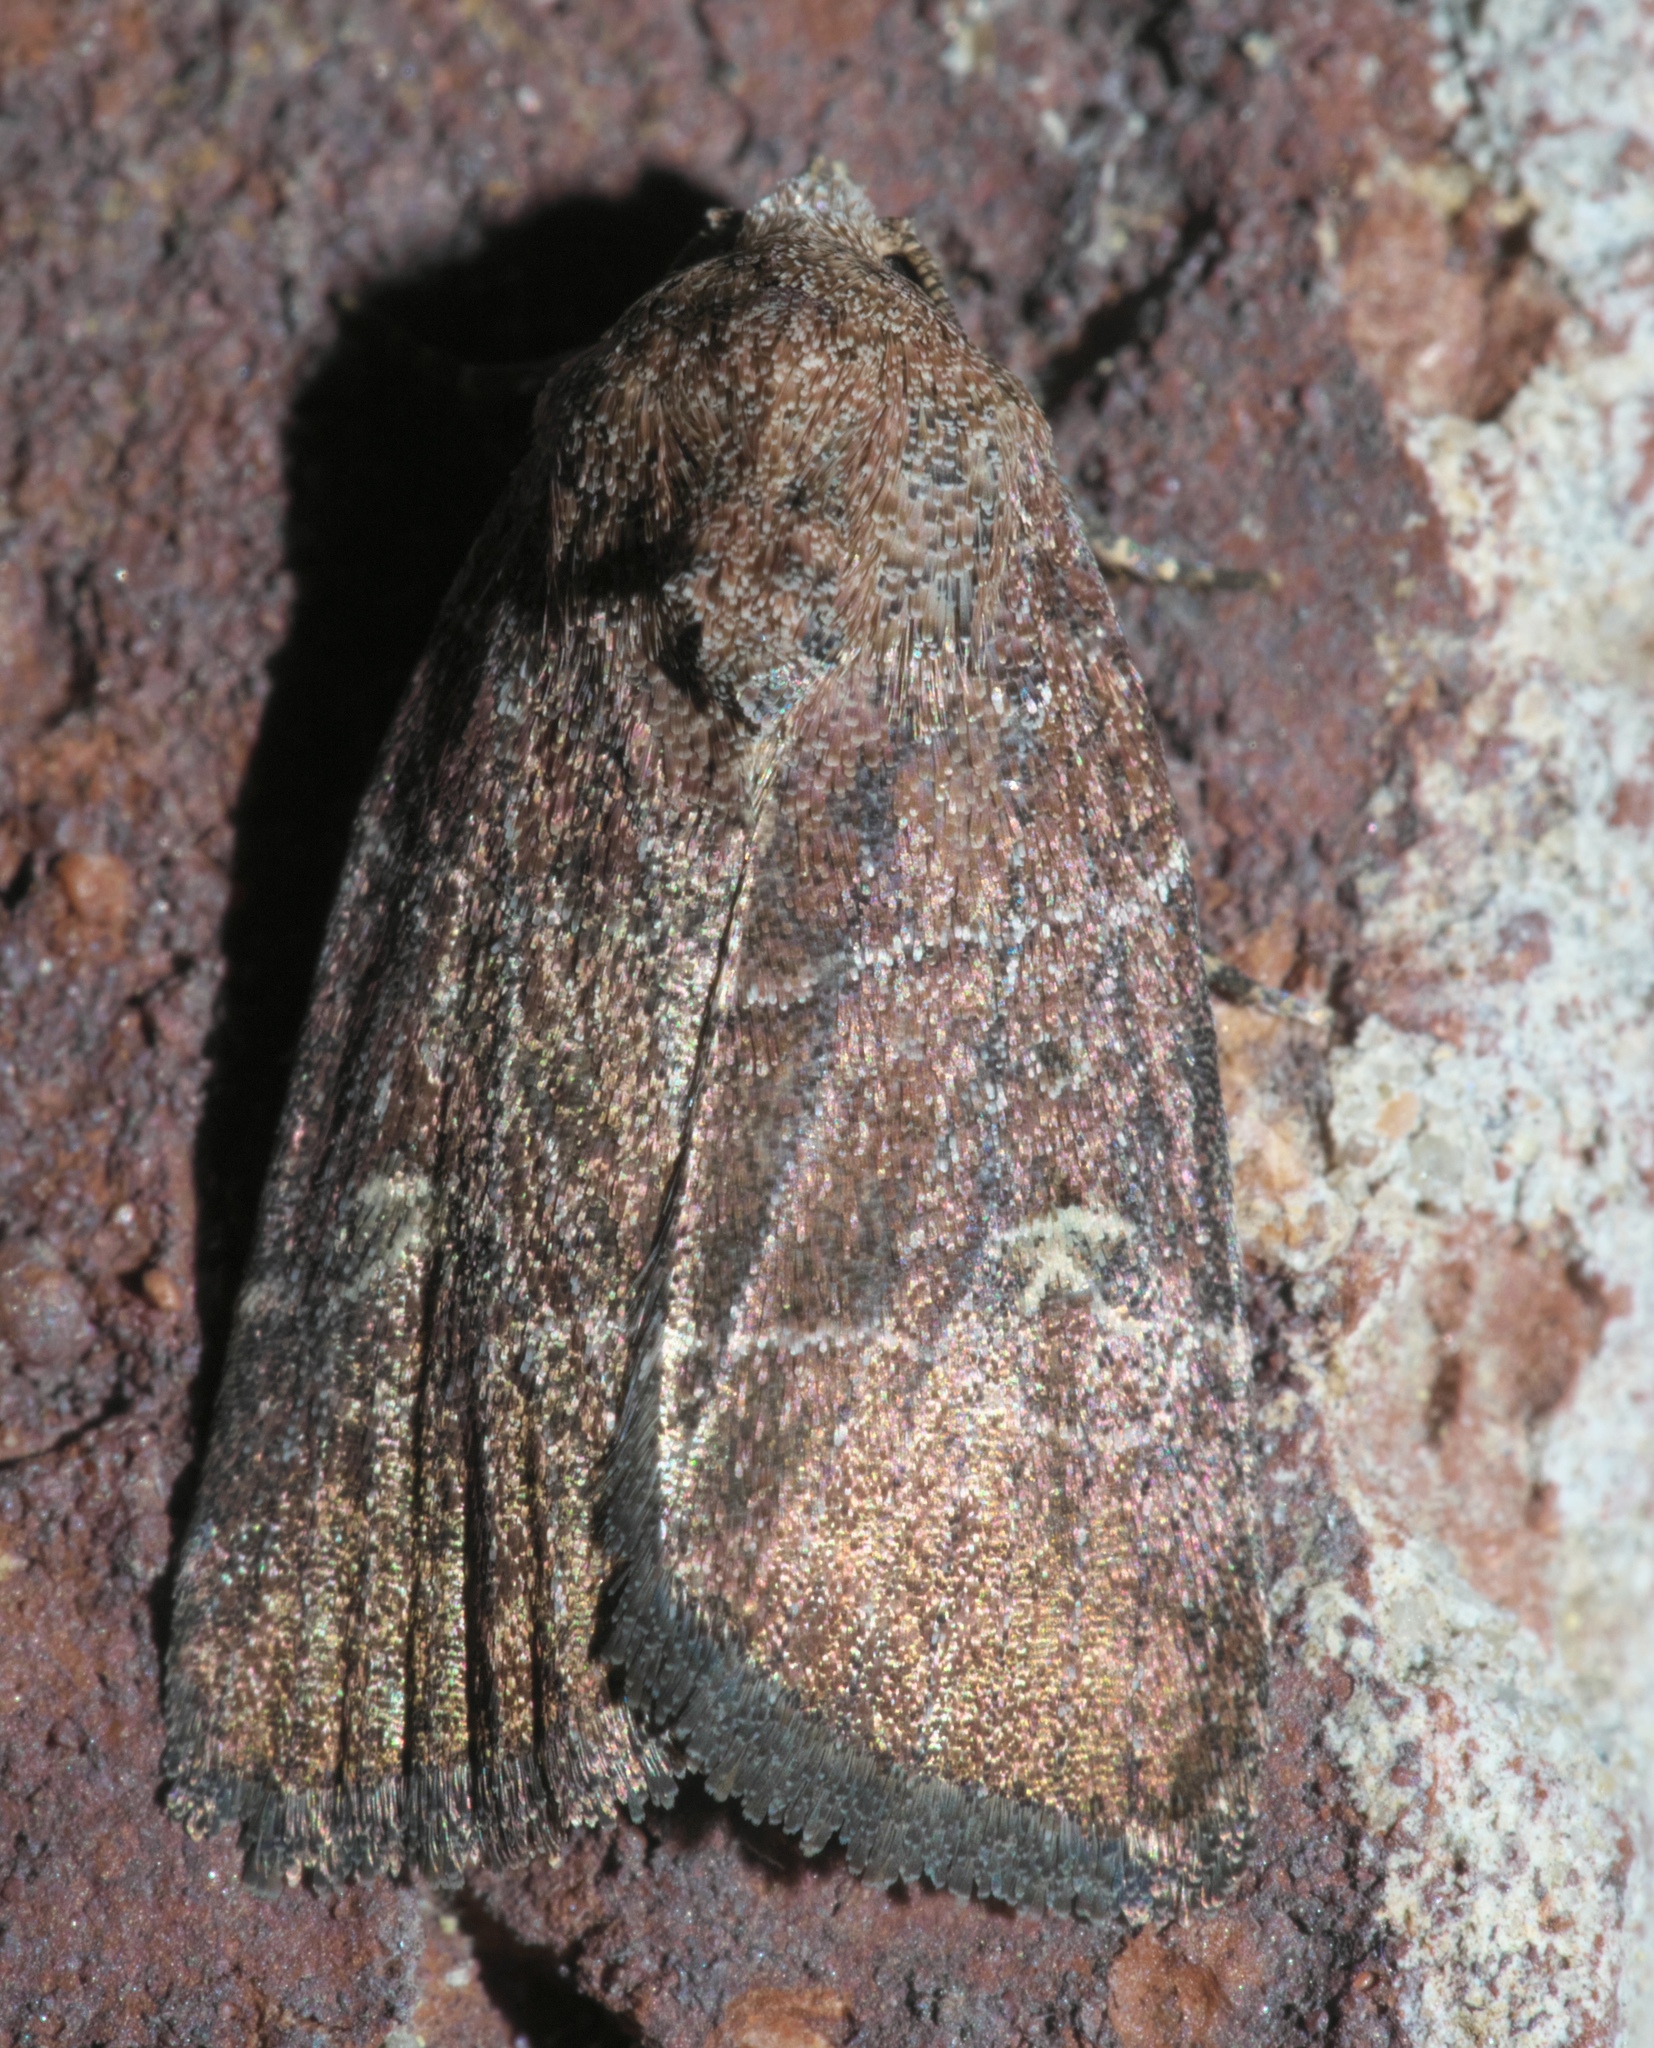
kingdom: Animalia
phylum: Arthropoda
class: Insecta
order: Lepidoptera
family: Noctuidae
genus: Elaphria
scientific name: Elaphria grata
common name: Grateful midget moth
